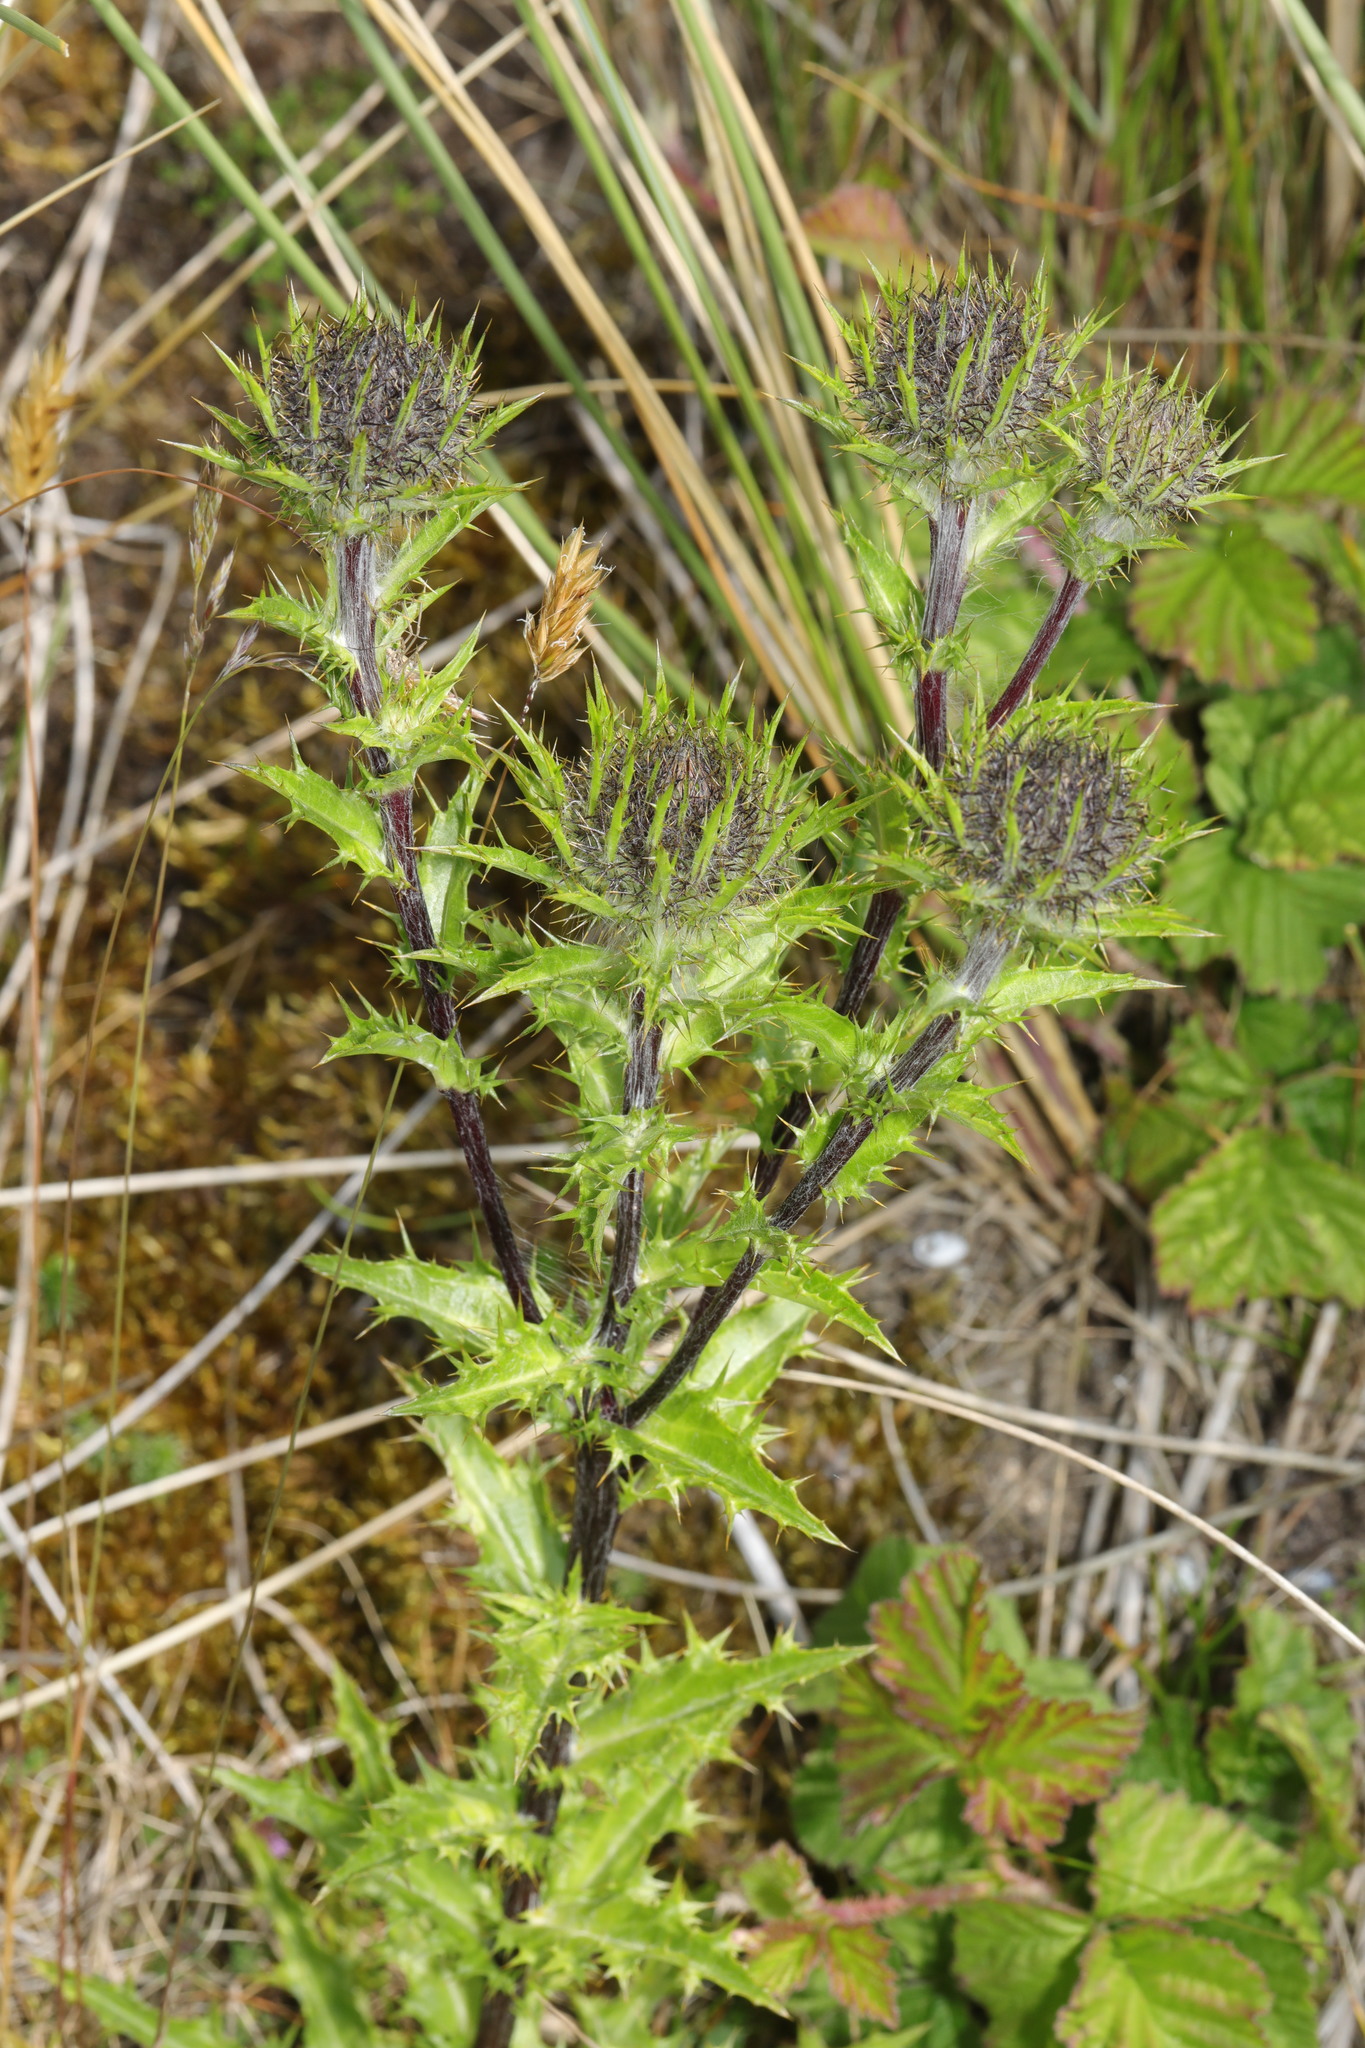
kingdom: Plantae
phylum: Tracheophyta
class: Magnoliopsida
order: Asterales
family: Asteraceae
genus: Carlina
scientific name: Carlina vulgaris
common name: Carline thistle
